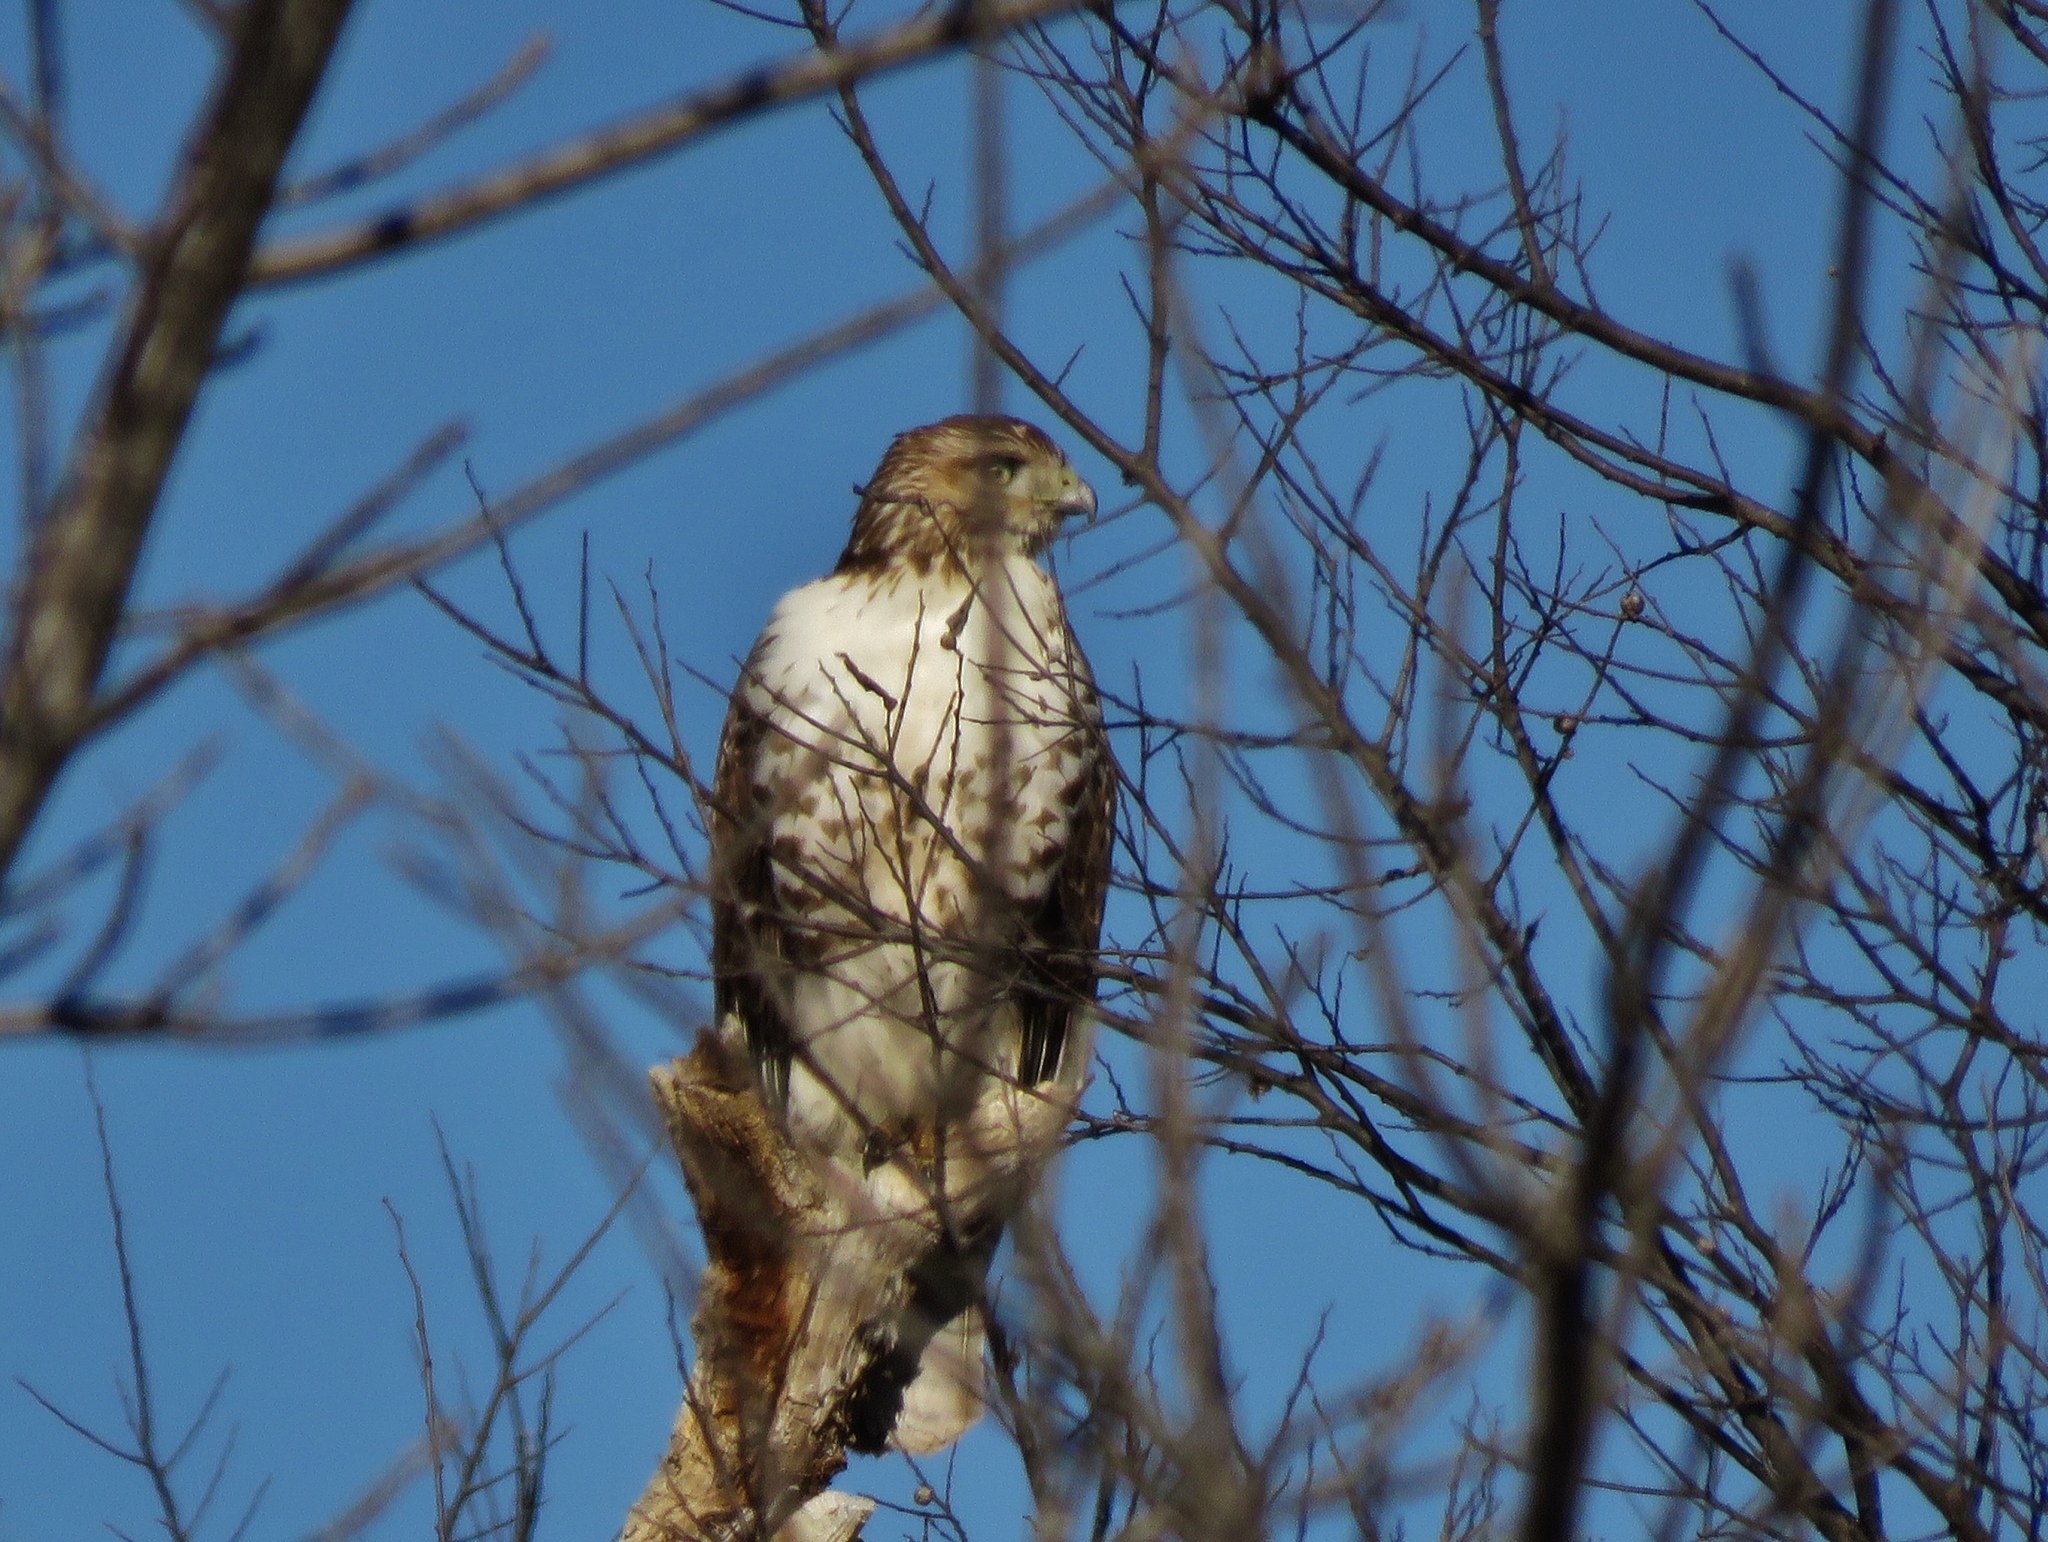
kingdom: Animalia
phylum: Chordata
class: Aves
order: Accipitriformes
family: Accipitridae
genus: Buteo
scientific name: Buteo jamaicensis
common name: Red-tailed hawk
